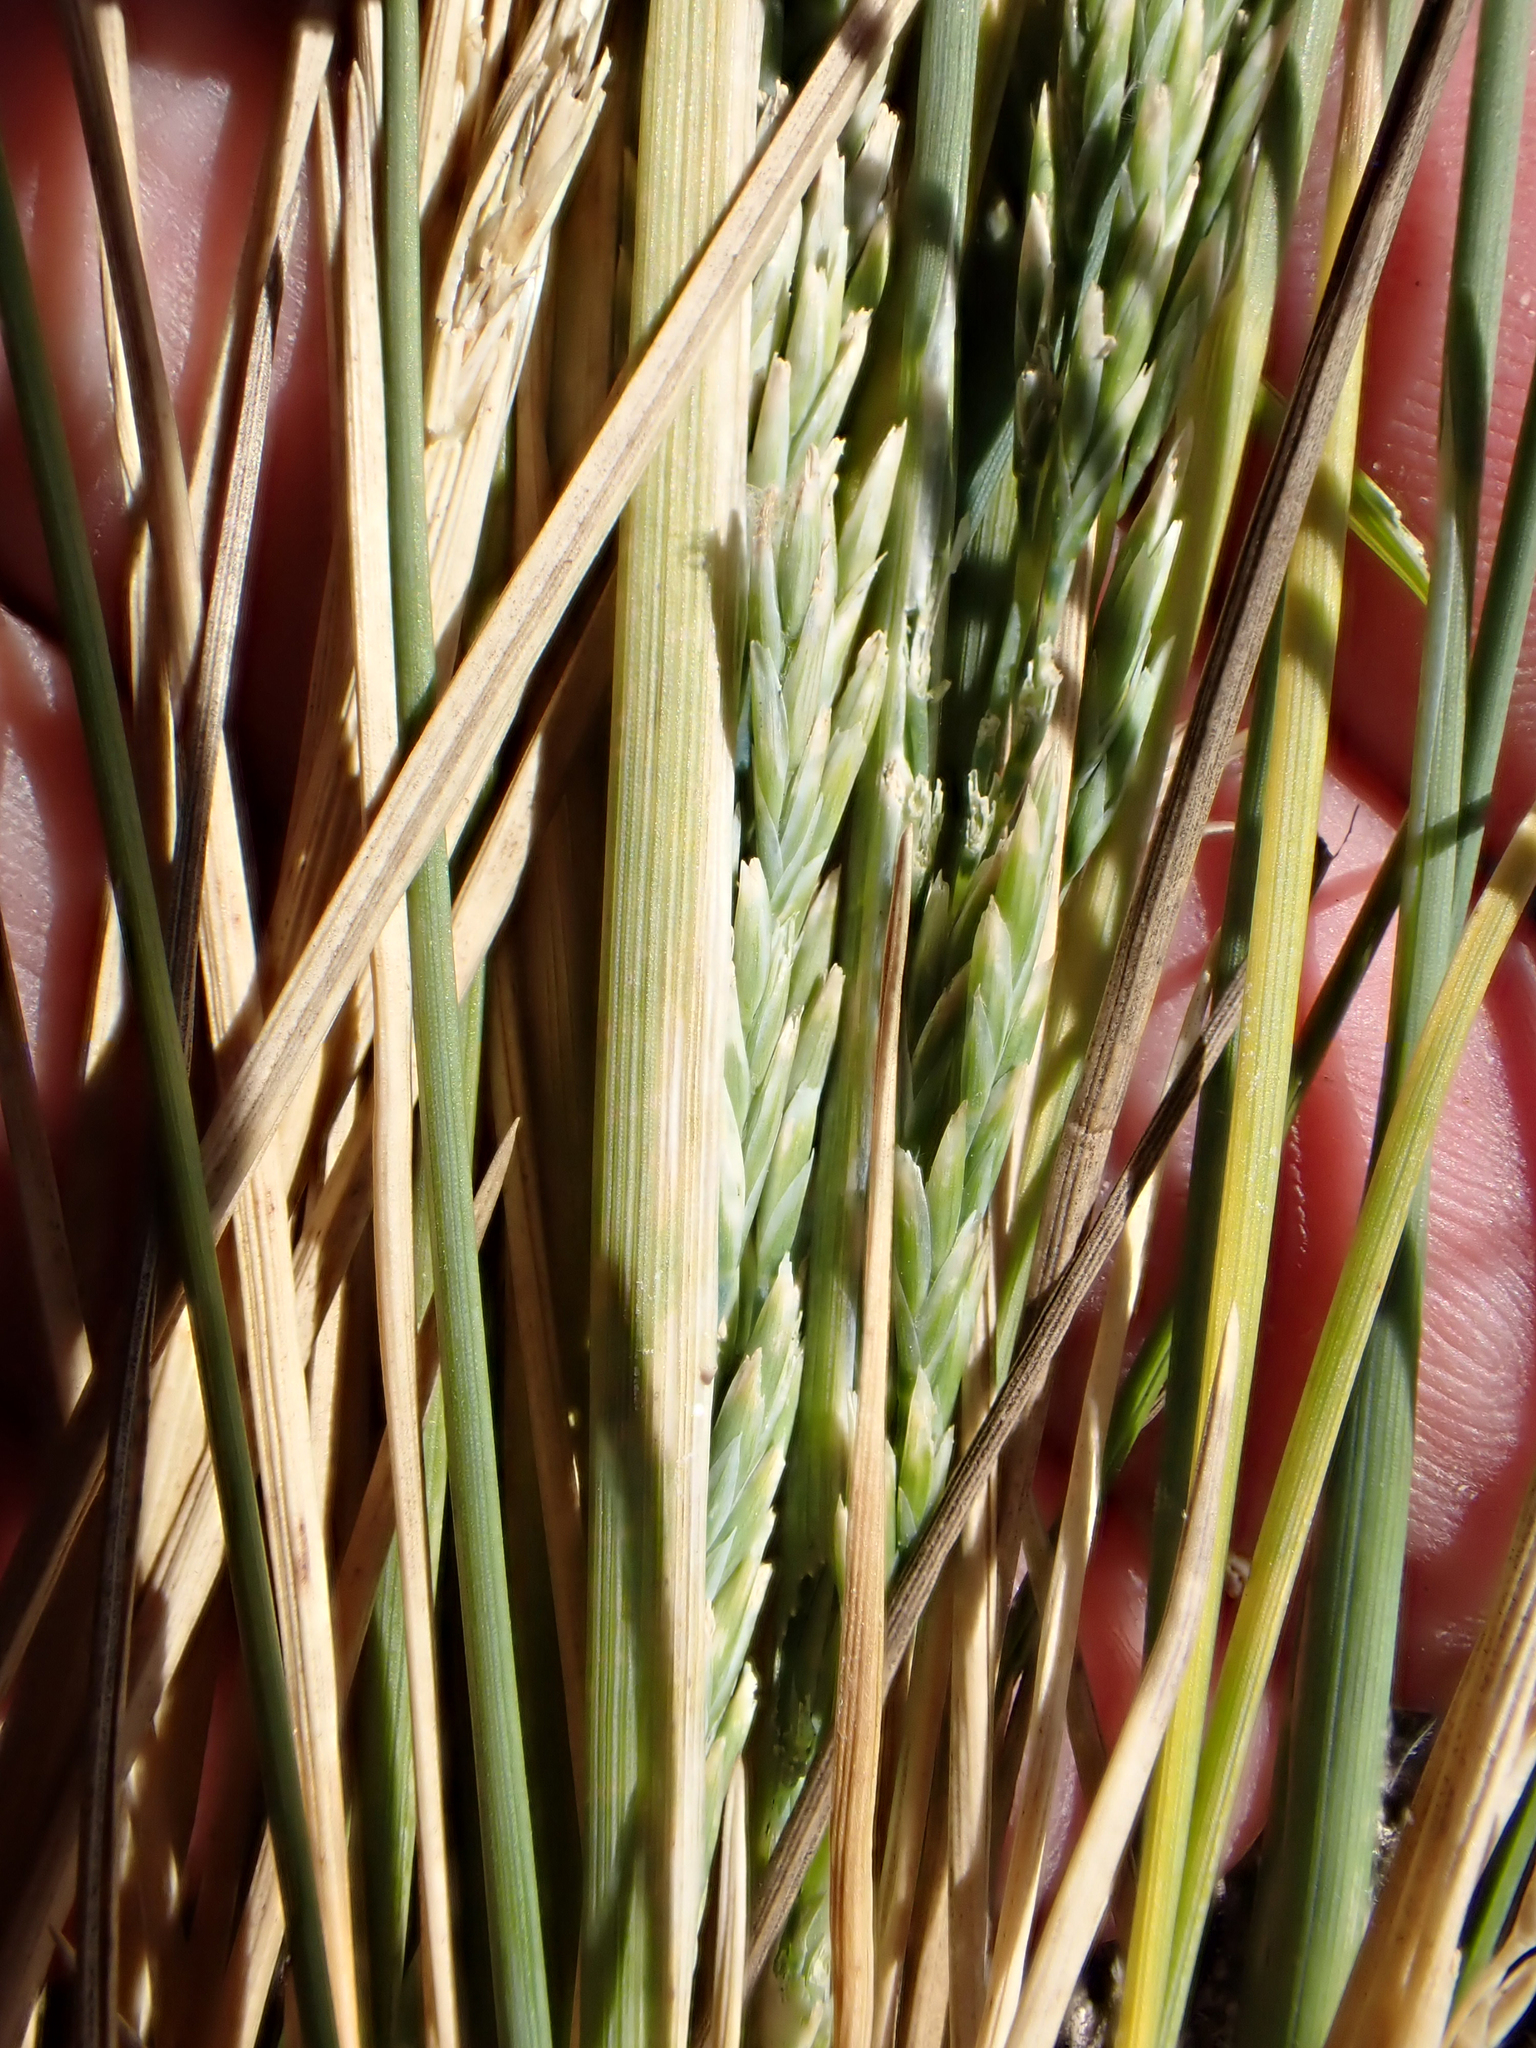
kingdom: Plantae
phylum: Tracheophyta
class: Liliopsida
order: Poales
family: Poaceae
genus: Puccinellia
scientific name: Puccinellia walkeri
